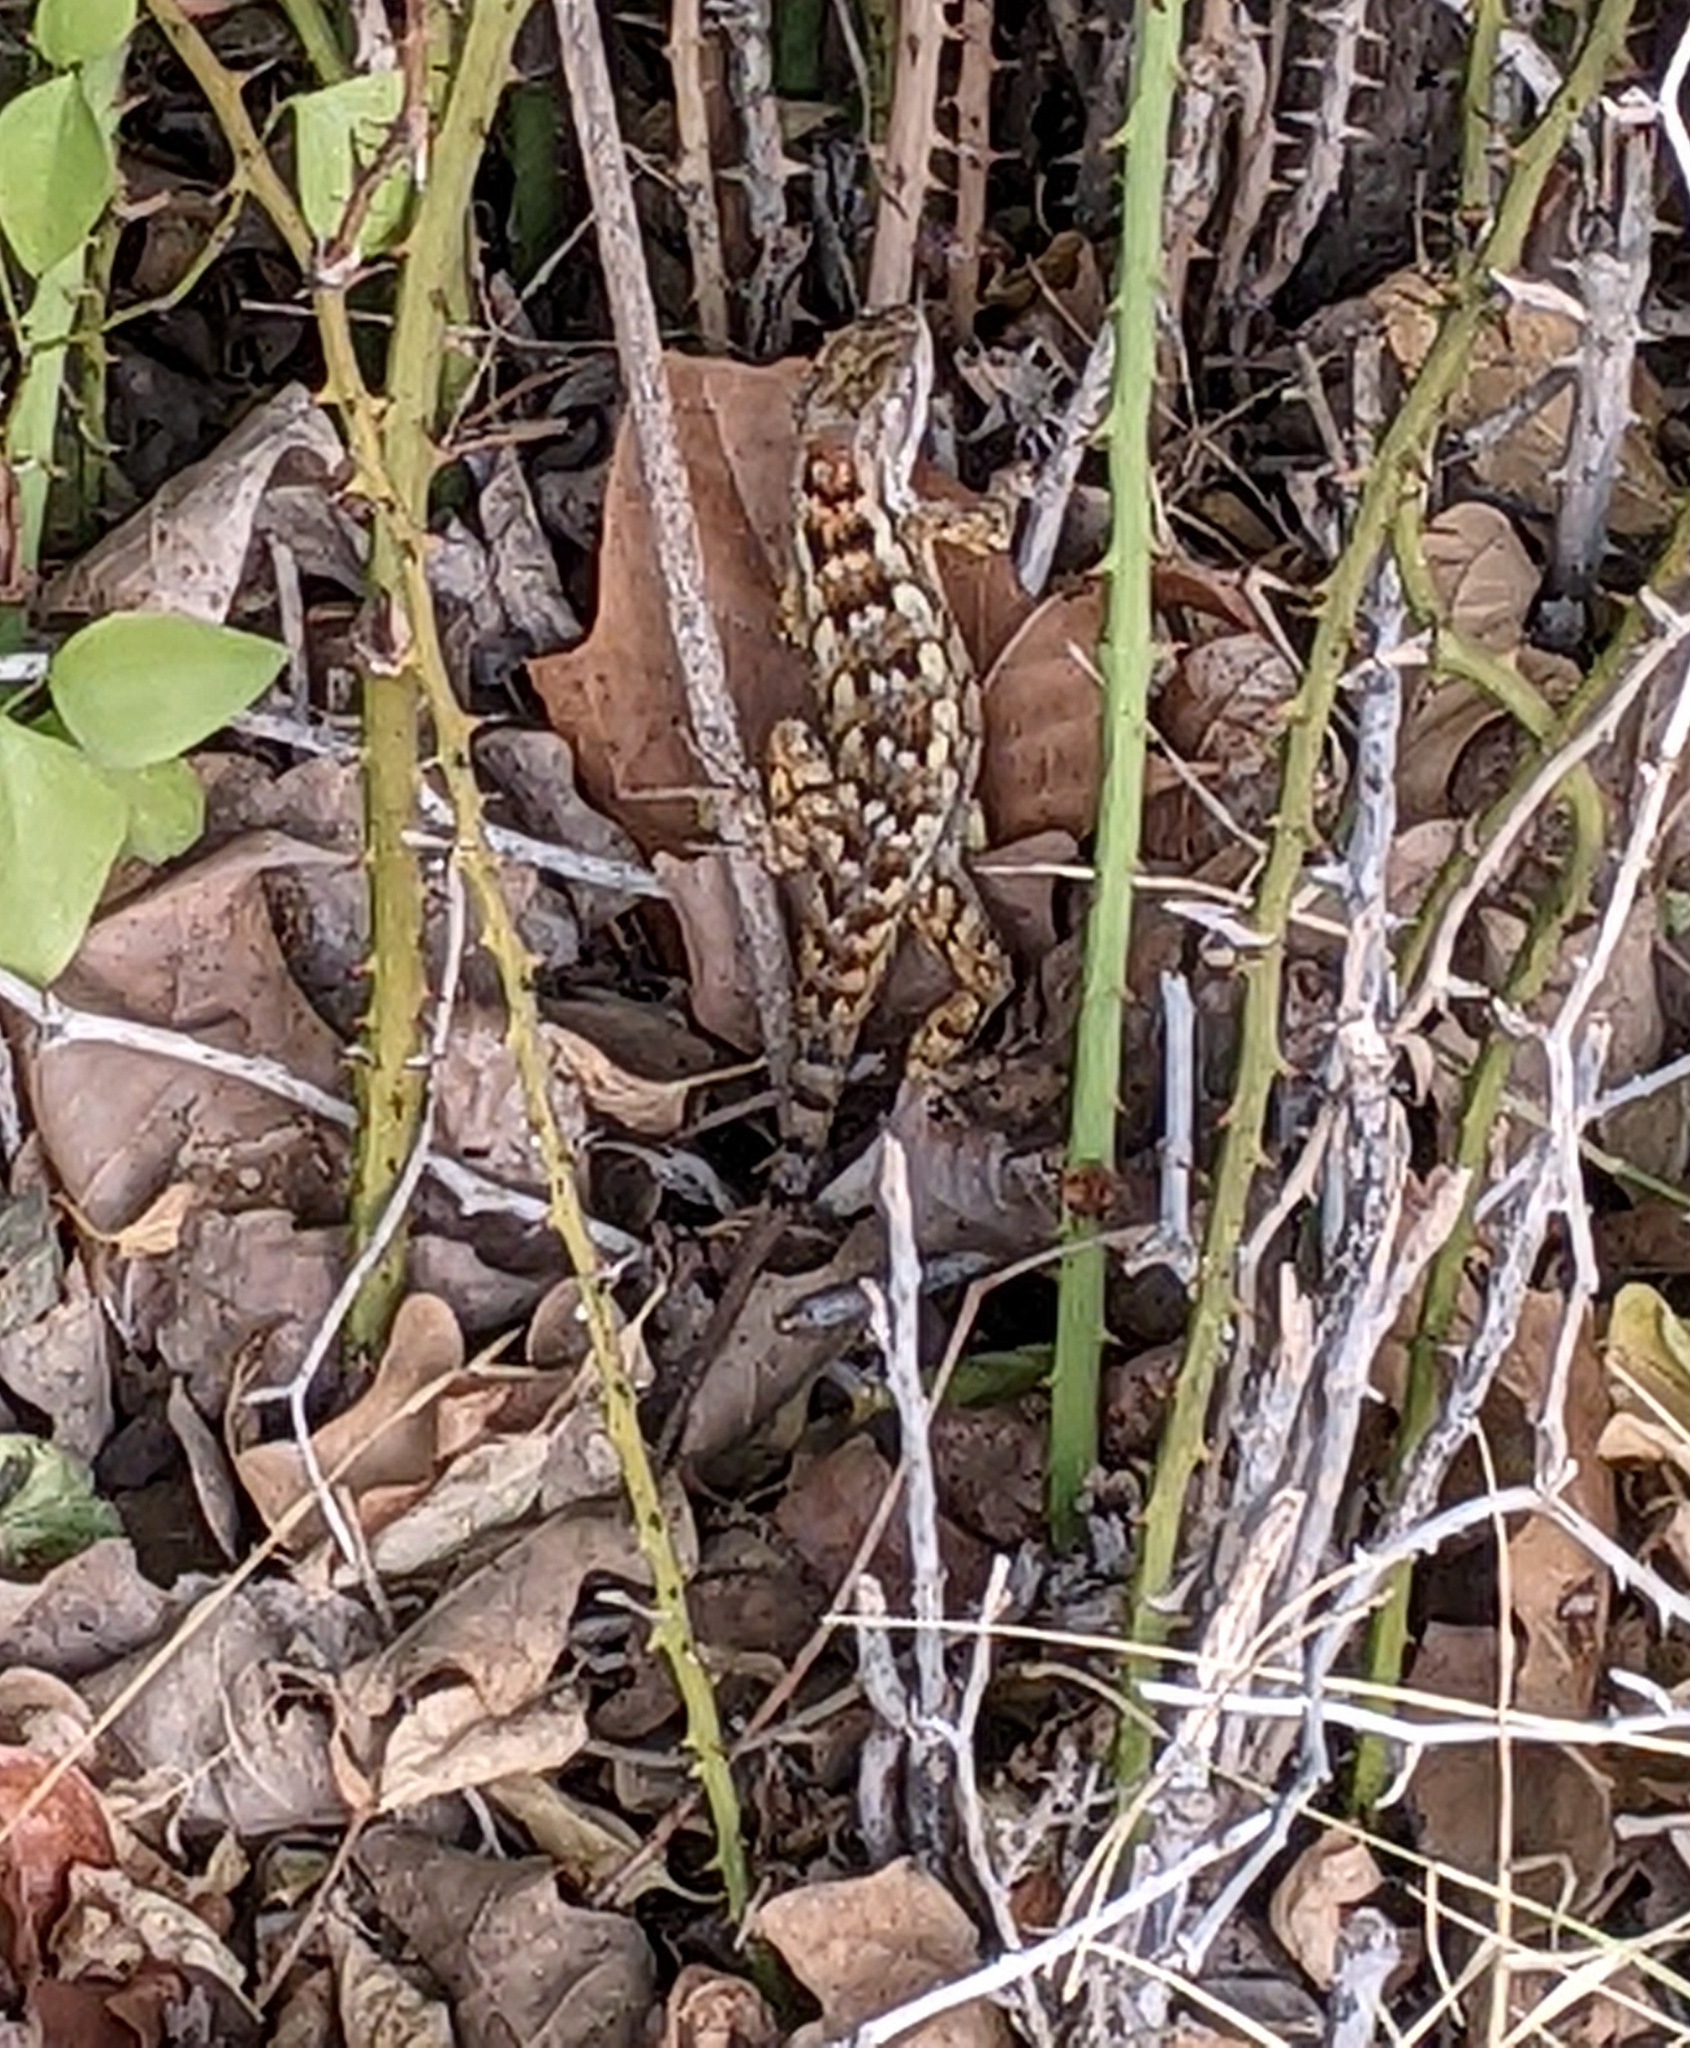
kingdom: Animalia
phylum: Chordata
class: Squamata
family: Phrynosomatidae
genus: Sceloporus
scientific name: Sceloporus olivaceus
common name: Texas spiny lizard
